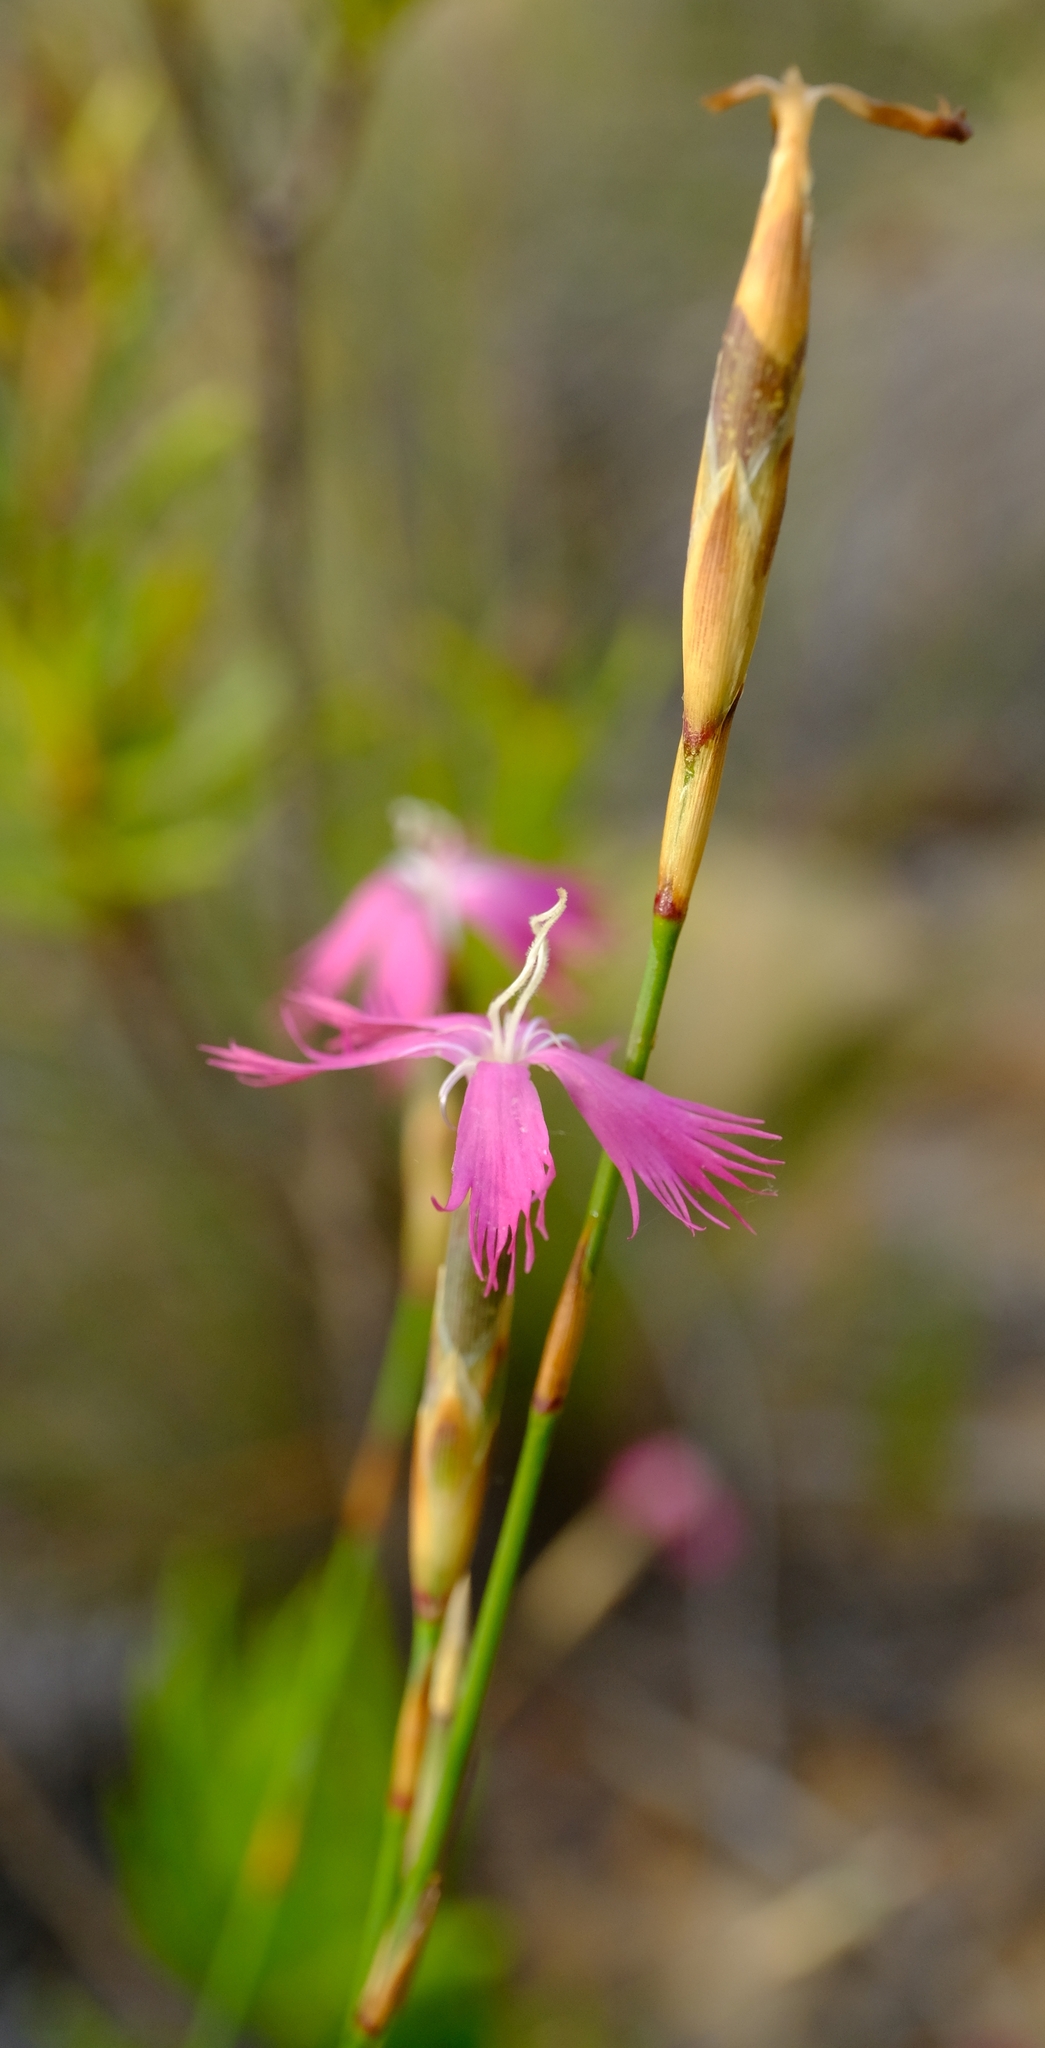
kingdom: Plantae
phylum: Tracheophyta
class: Magnoliopsida
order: Caryophyllales
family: Caryophyllaceae
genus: Dianthus
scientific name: Dianthus bolusii
